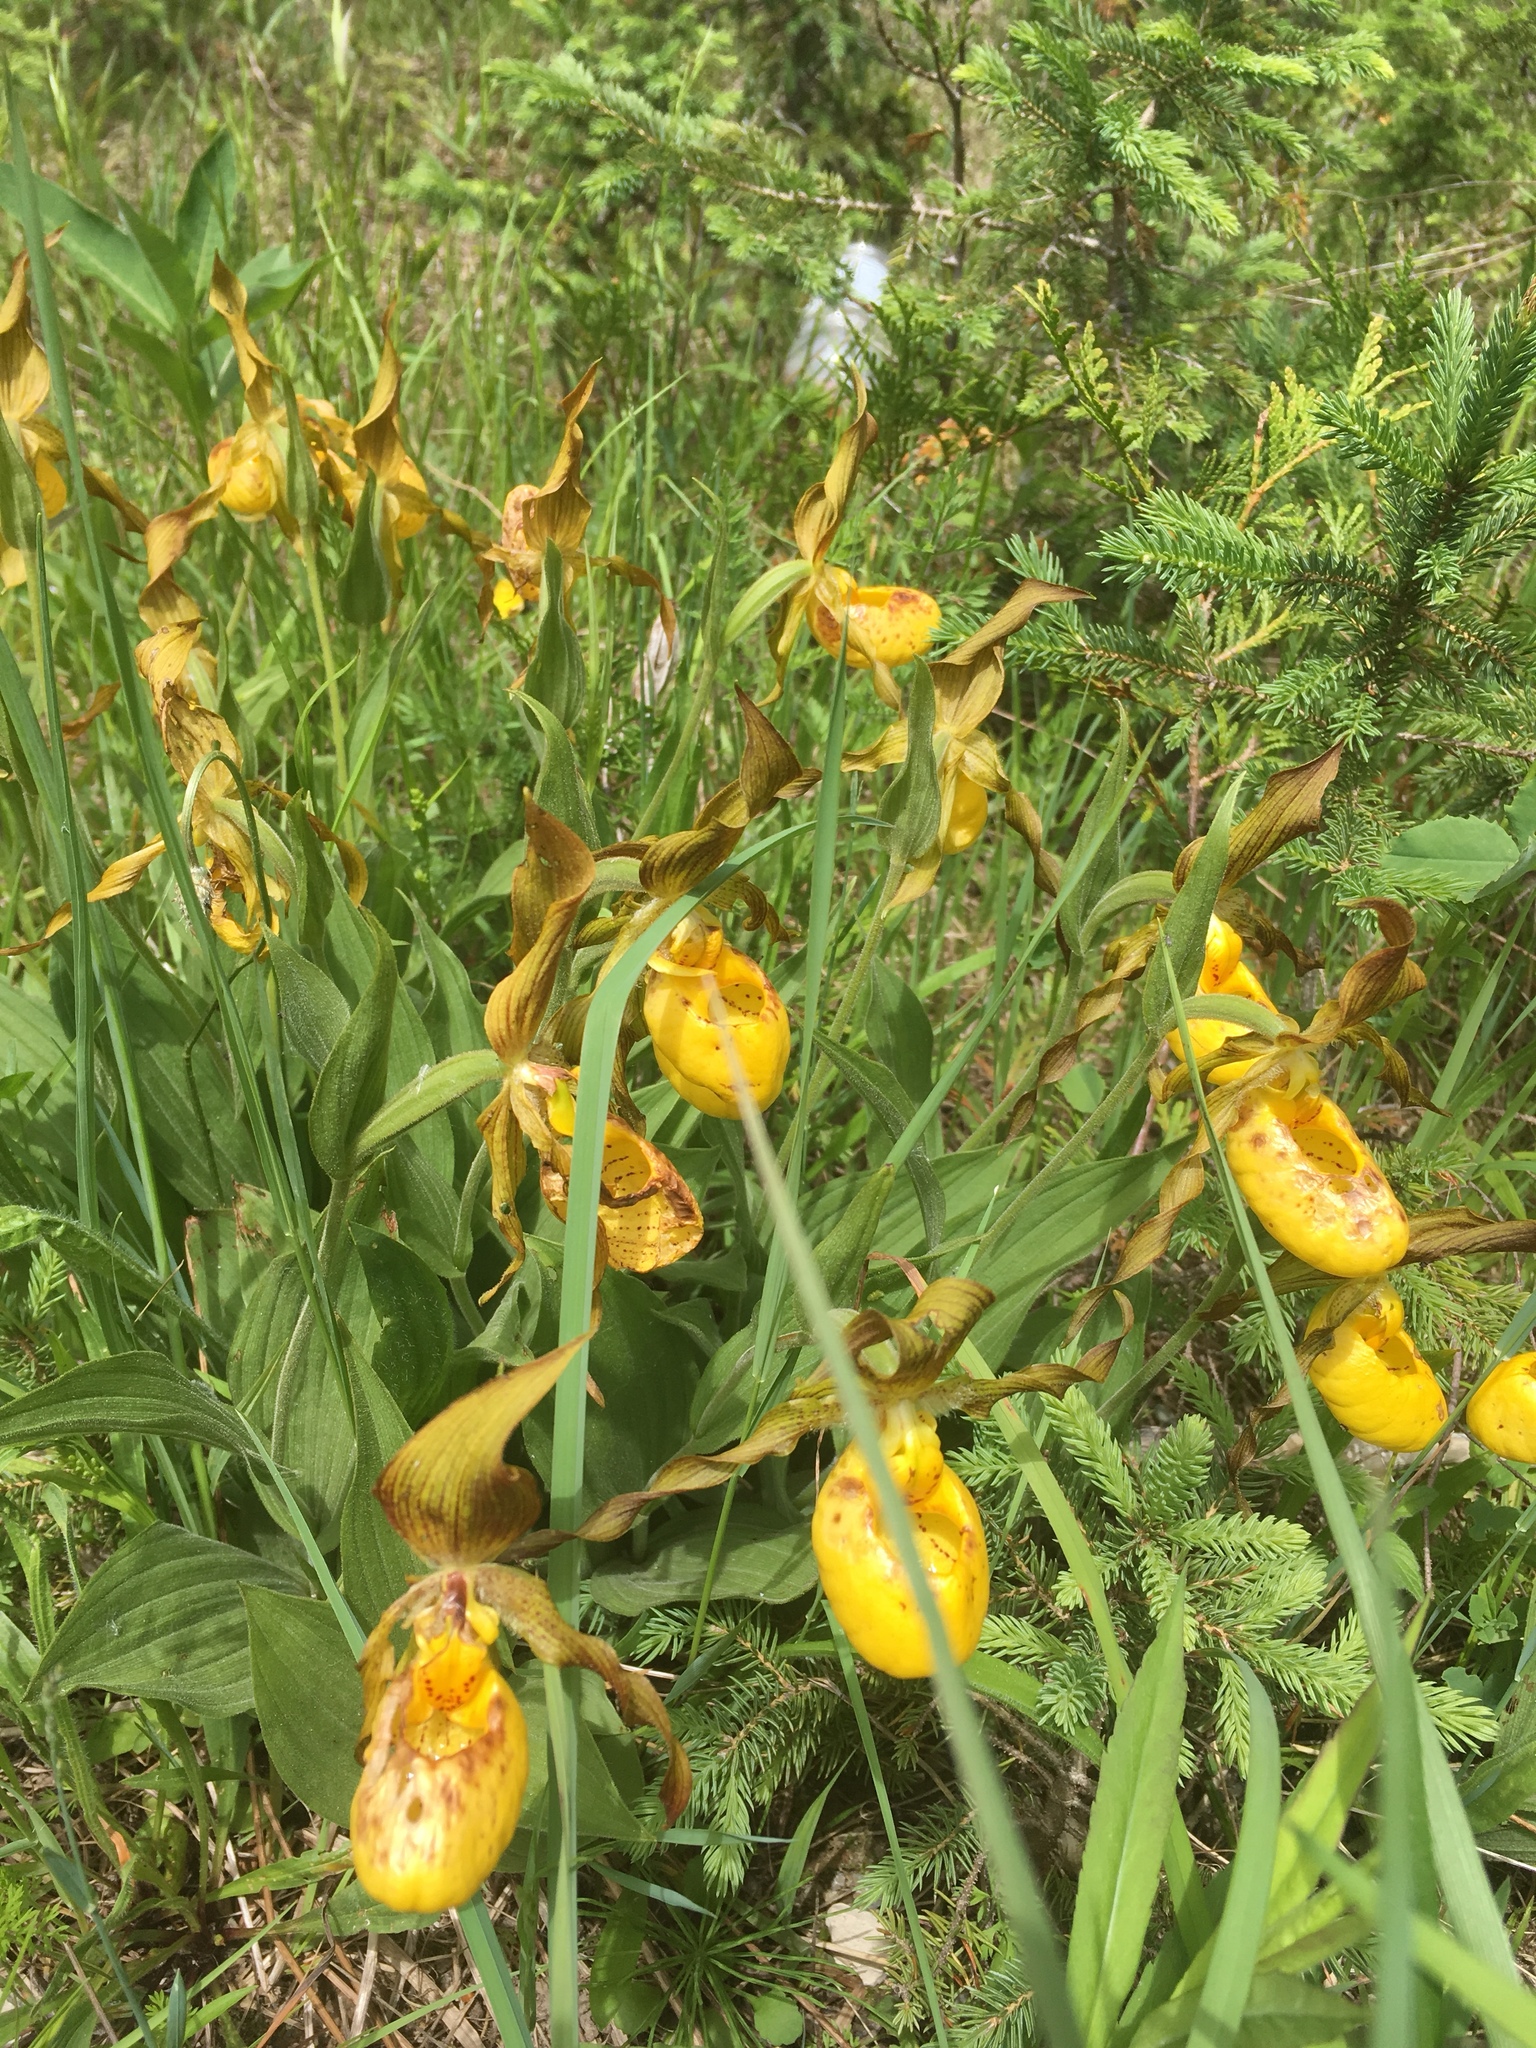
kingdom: Plantae
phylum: Tracheophyta
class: Liliopsida
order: Asparagales
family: Orchidaceae
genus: Cypripedium
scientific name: Cypripedium parviflorum
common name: American yellow lady's-slipper
